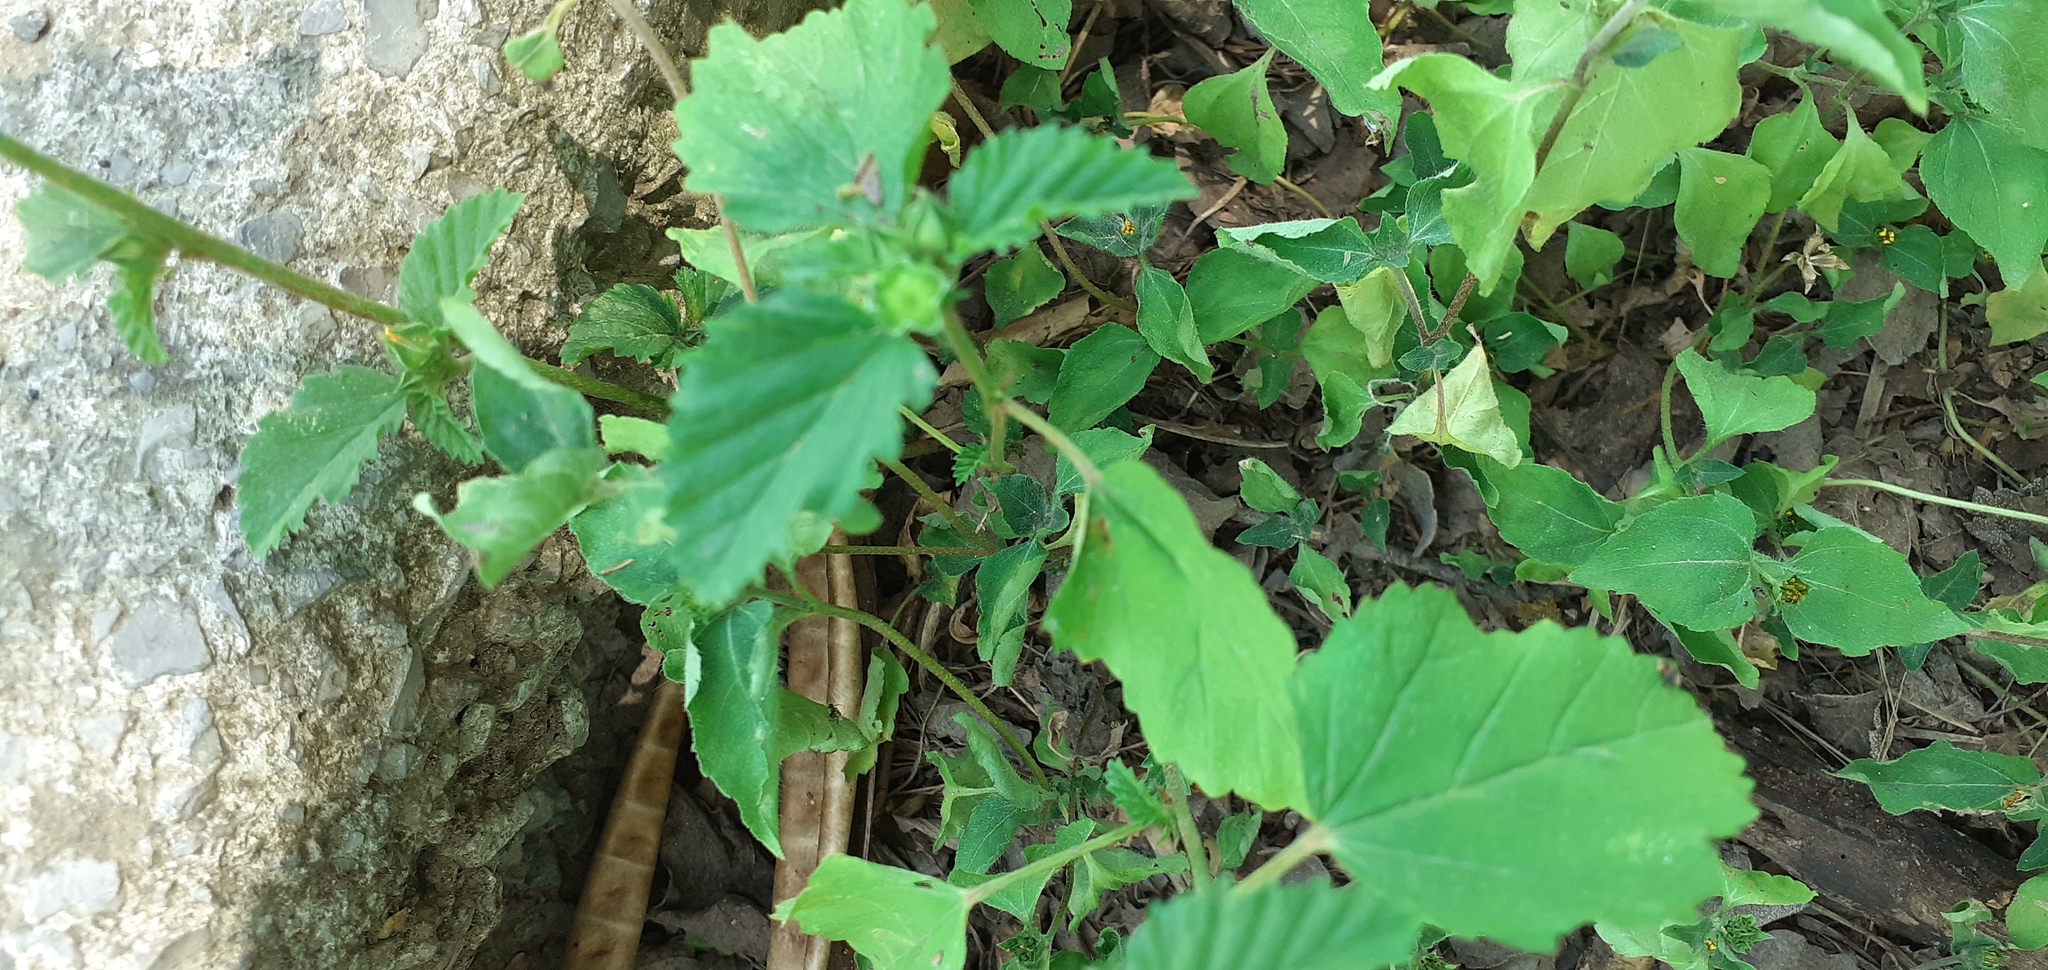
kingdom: Plantae
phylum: Tracheophyta
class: Magnoliopsida
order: Malvales
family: Malvaceae
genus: Malvastrum
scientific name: Malvastrum coromandelianum
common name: Threelobe false mallow
